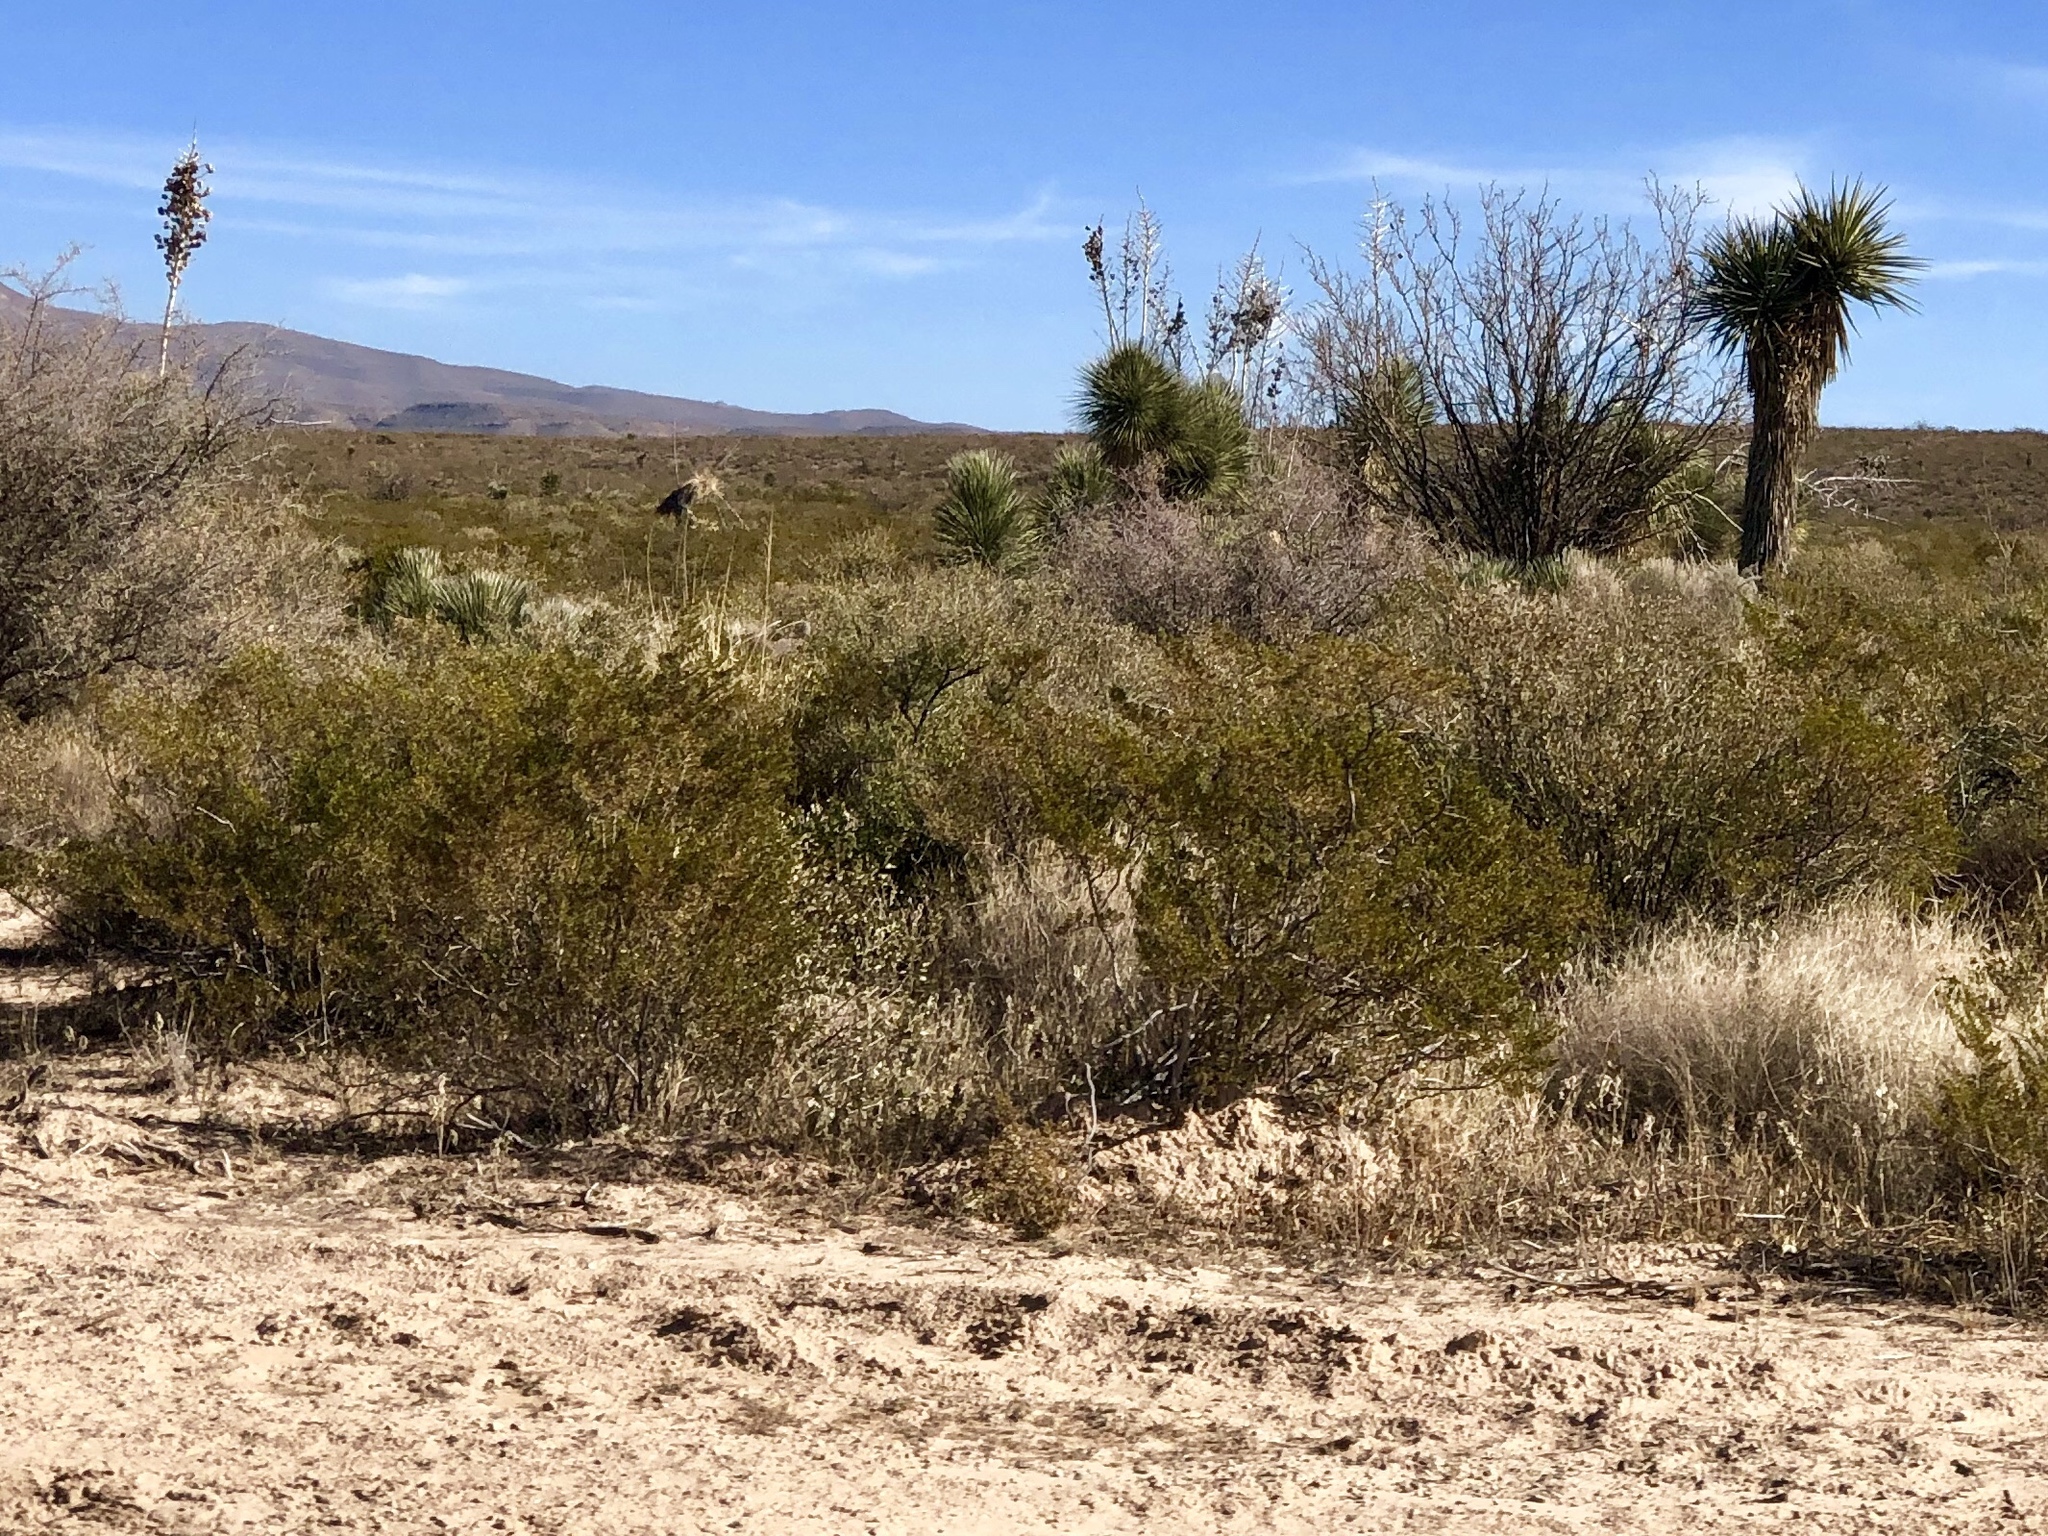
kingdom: Plantae
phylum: Tracheophyta
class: Magnoliopsida
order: Zygophyllales
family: Zygophyllaceae
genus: Larrea
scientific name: Larrea tridentata
